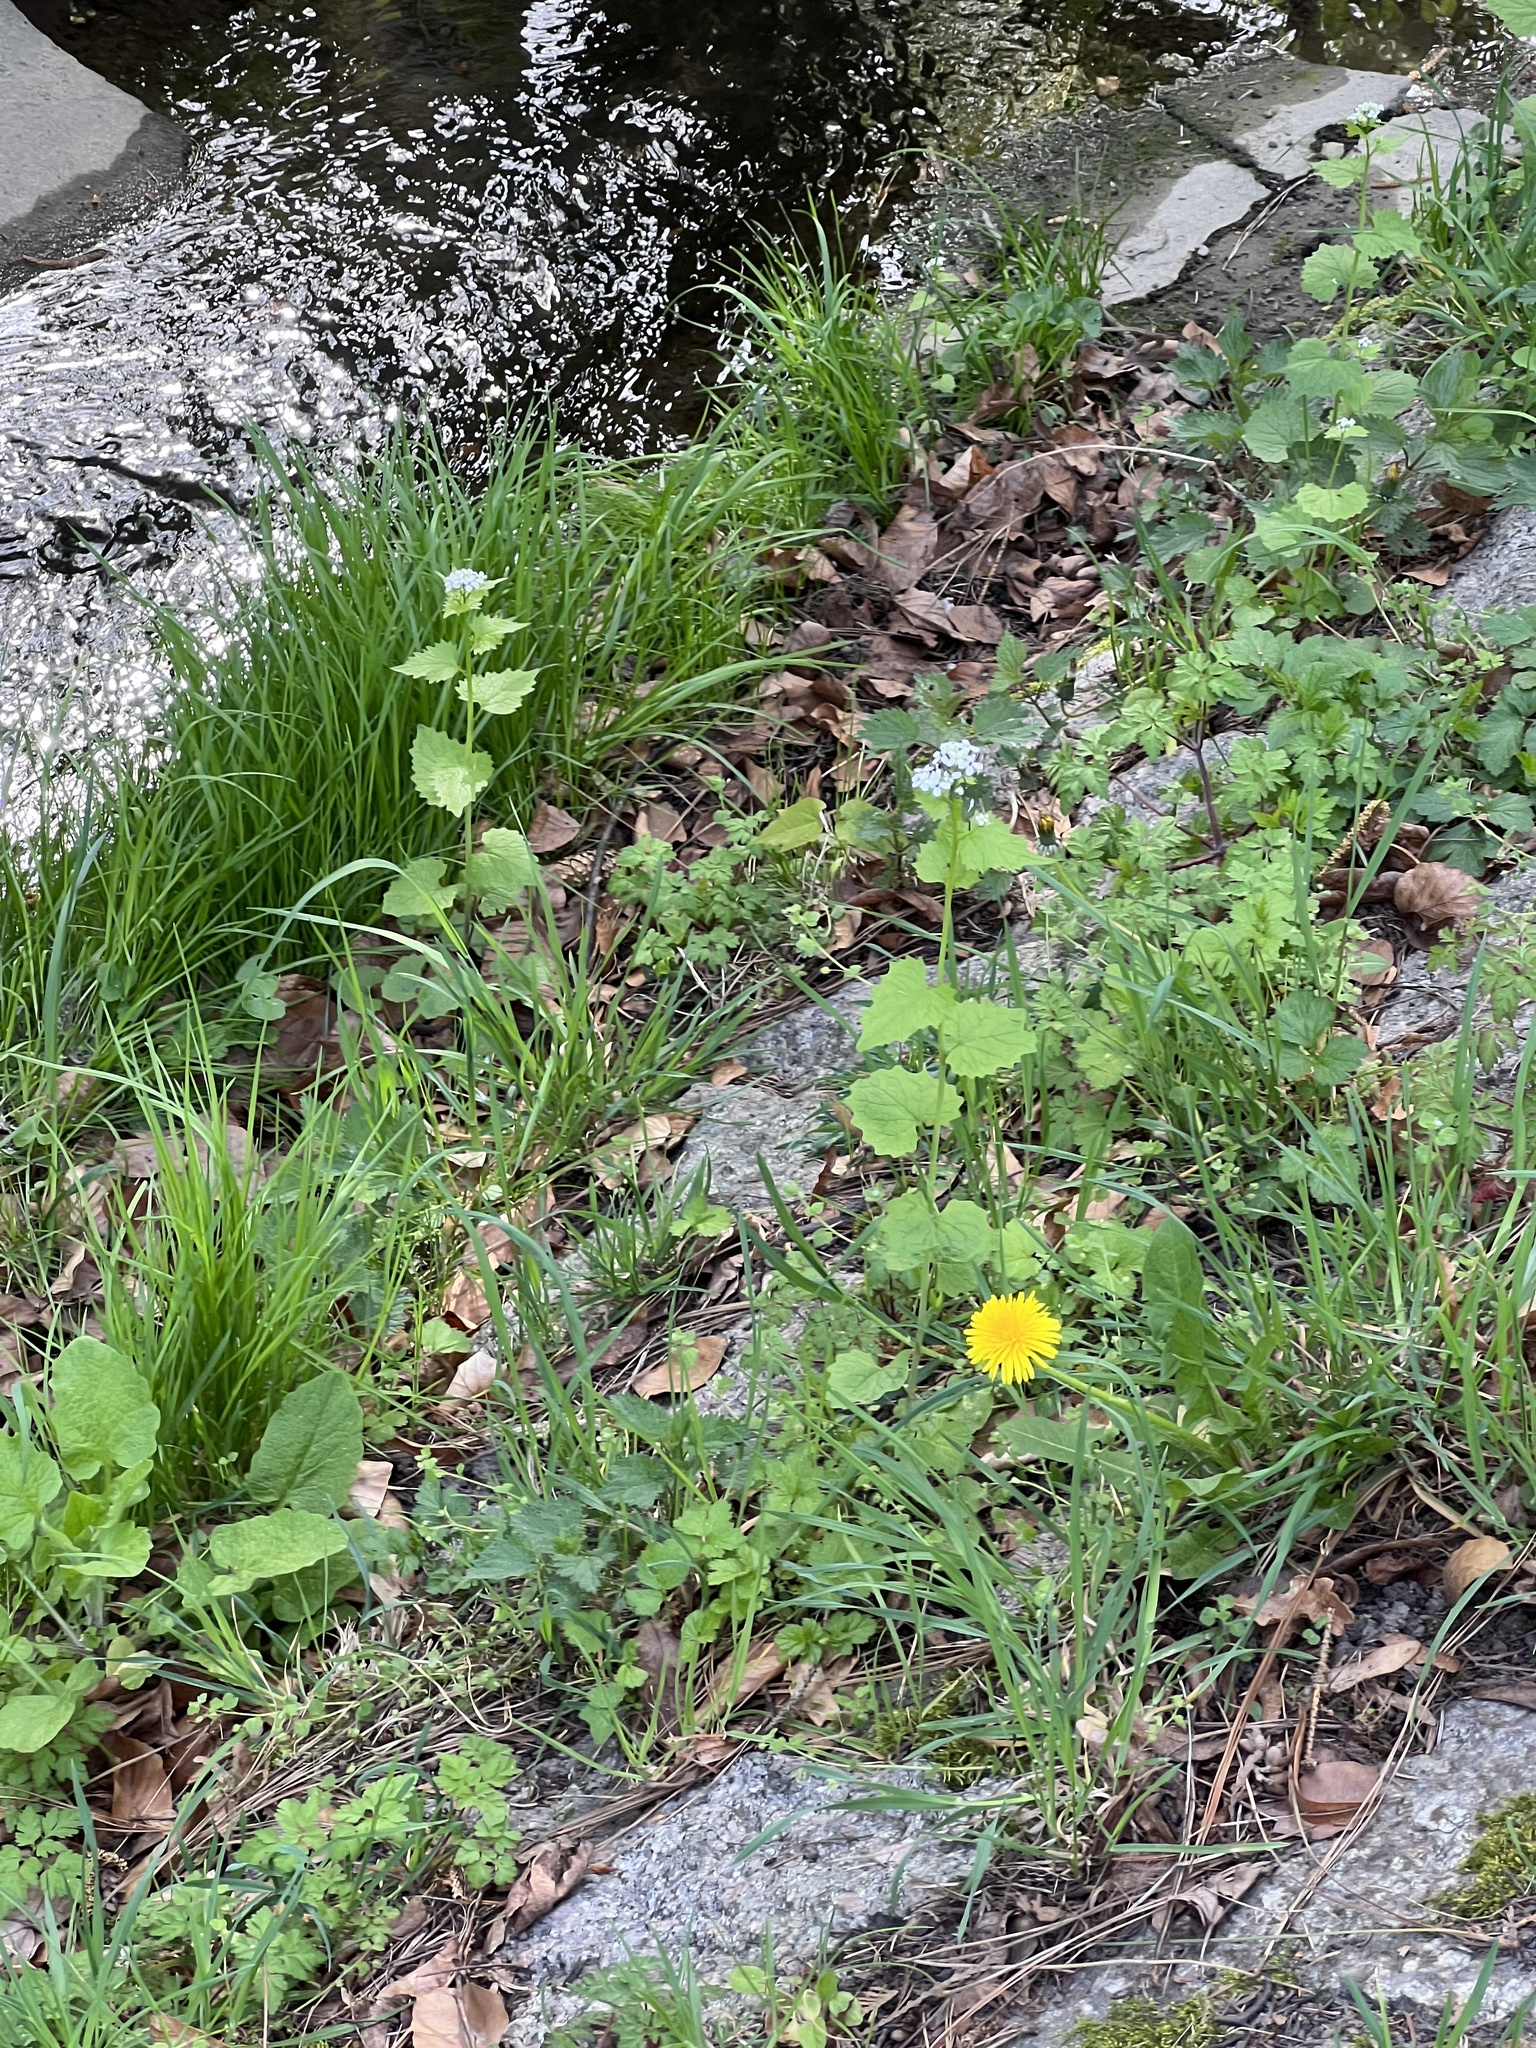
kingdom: Plantae
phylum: Tracheophyta
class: Magnoliopsida
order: Brassicales
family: Brassicaceae
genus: Alliaria
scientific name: Alliaria petiolata
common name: Garlic mustard
